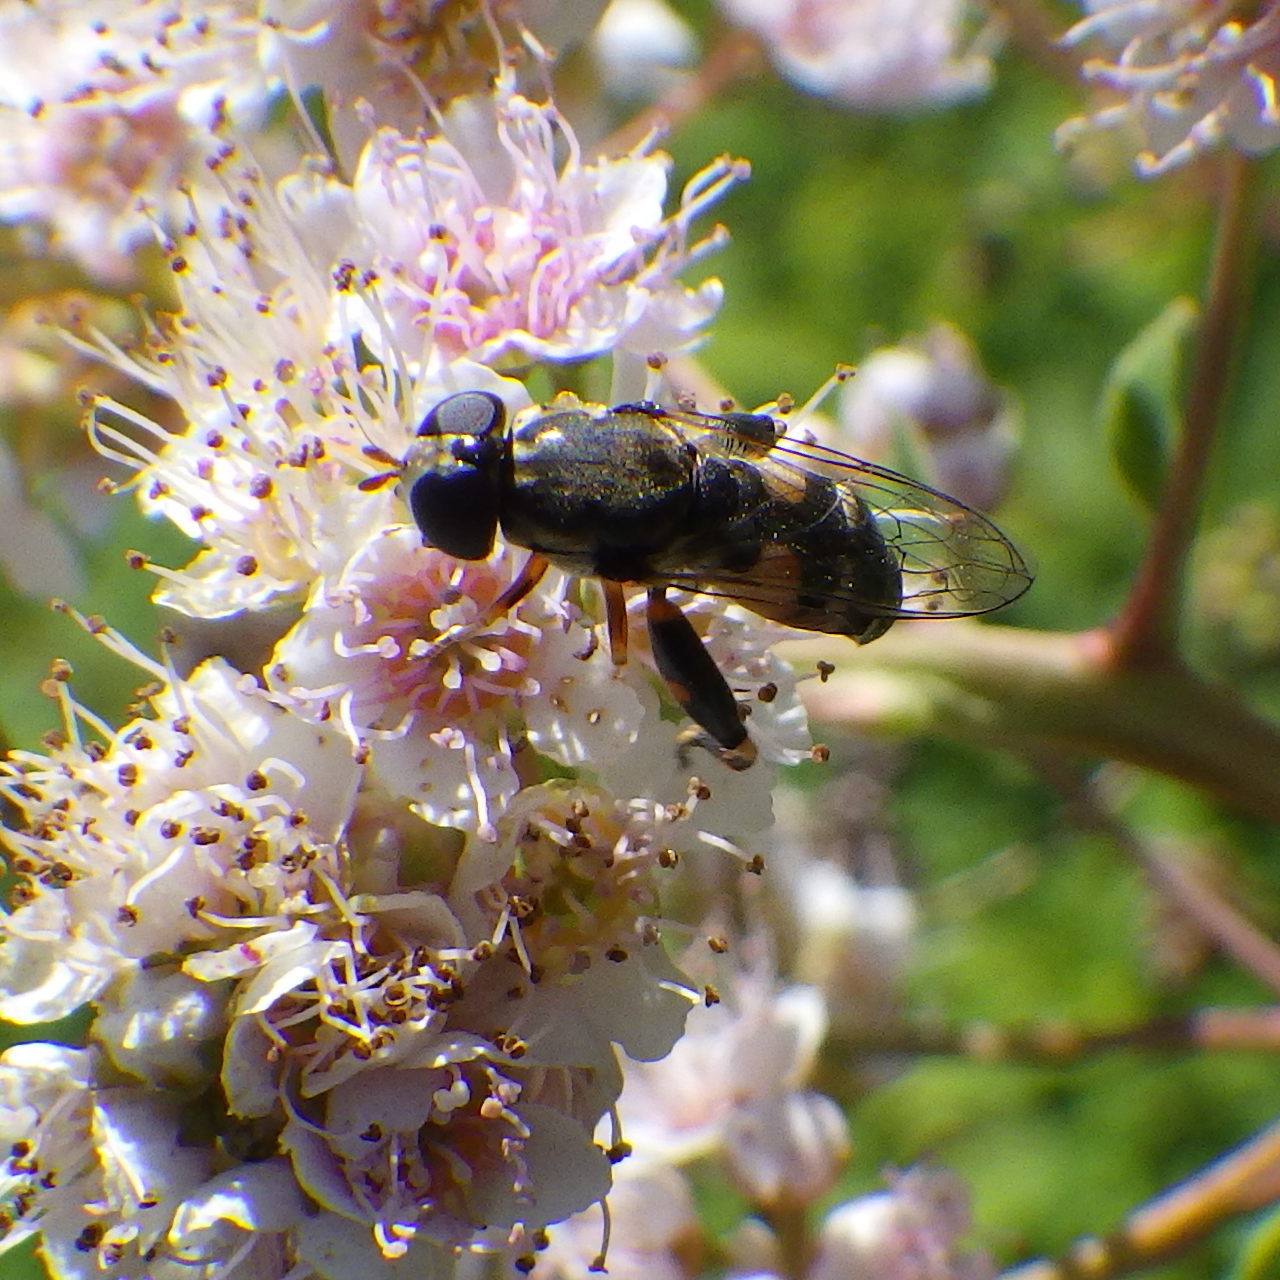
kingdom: Animalia
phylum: Arthropoda
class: Insecta
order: Diptera
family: Syrphidae
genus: Syritta
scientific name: Syritta pipiens
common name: Hover fly
